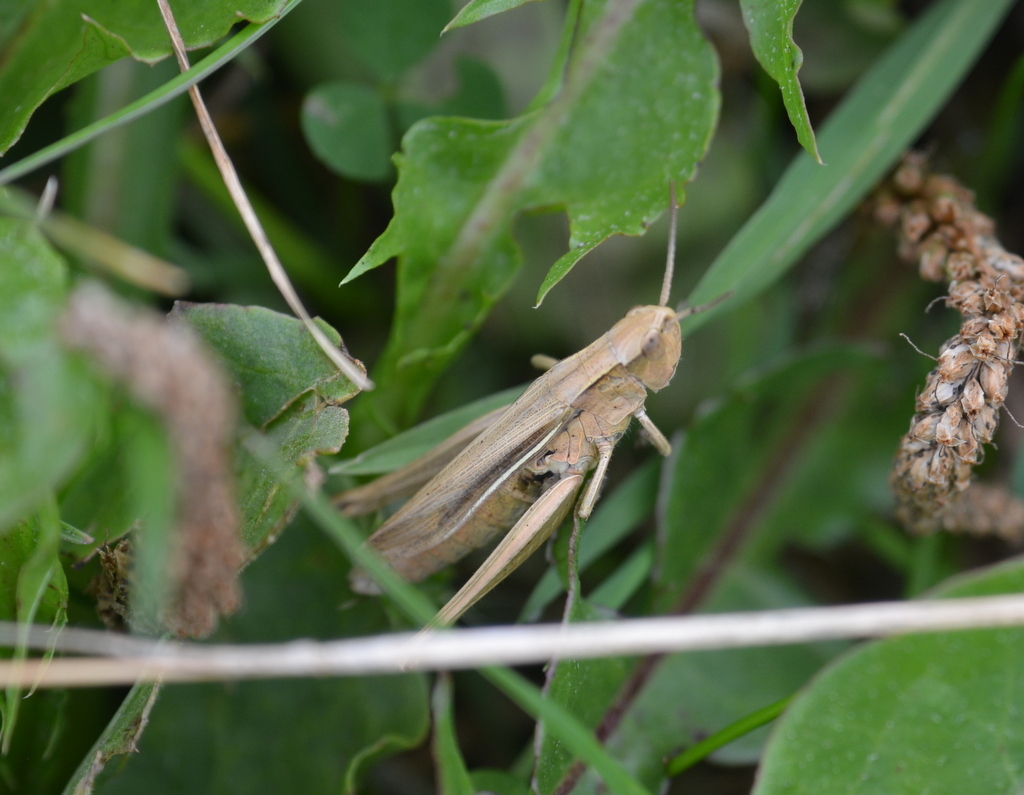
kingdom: Animalia
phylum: Arthropoda
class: Insecta
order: Orthoptera
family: Acrididae
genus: Chorthippus
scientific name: Chorthippus albomarginatus
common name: Lesser marsh grasshopper
